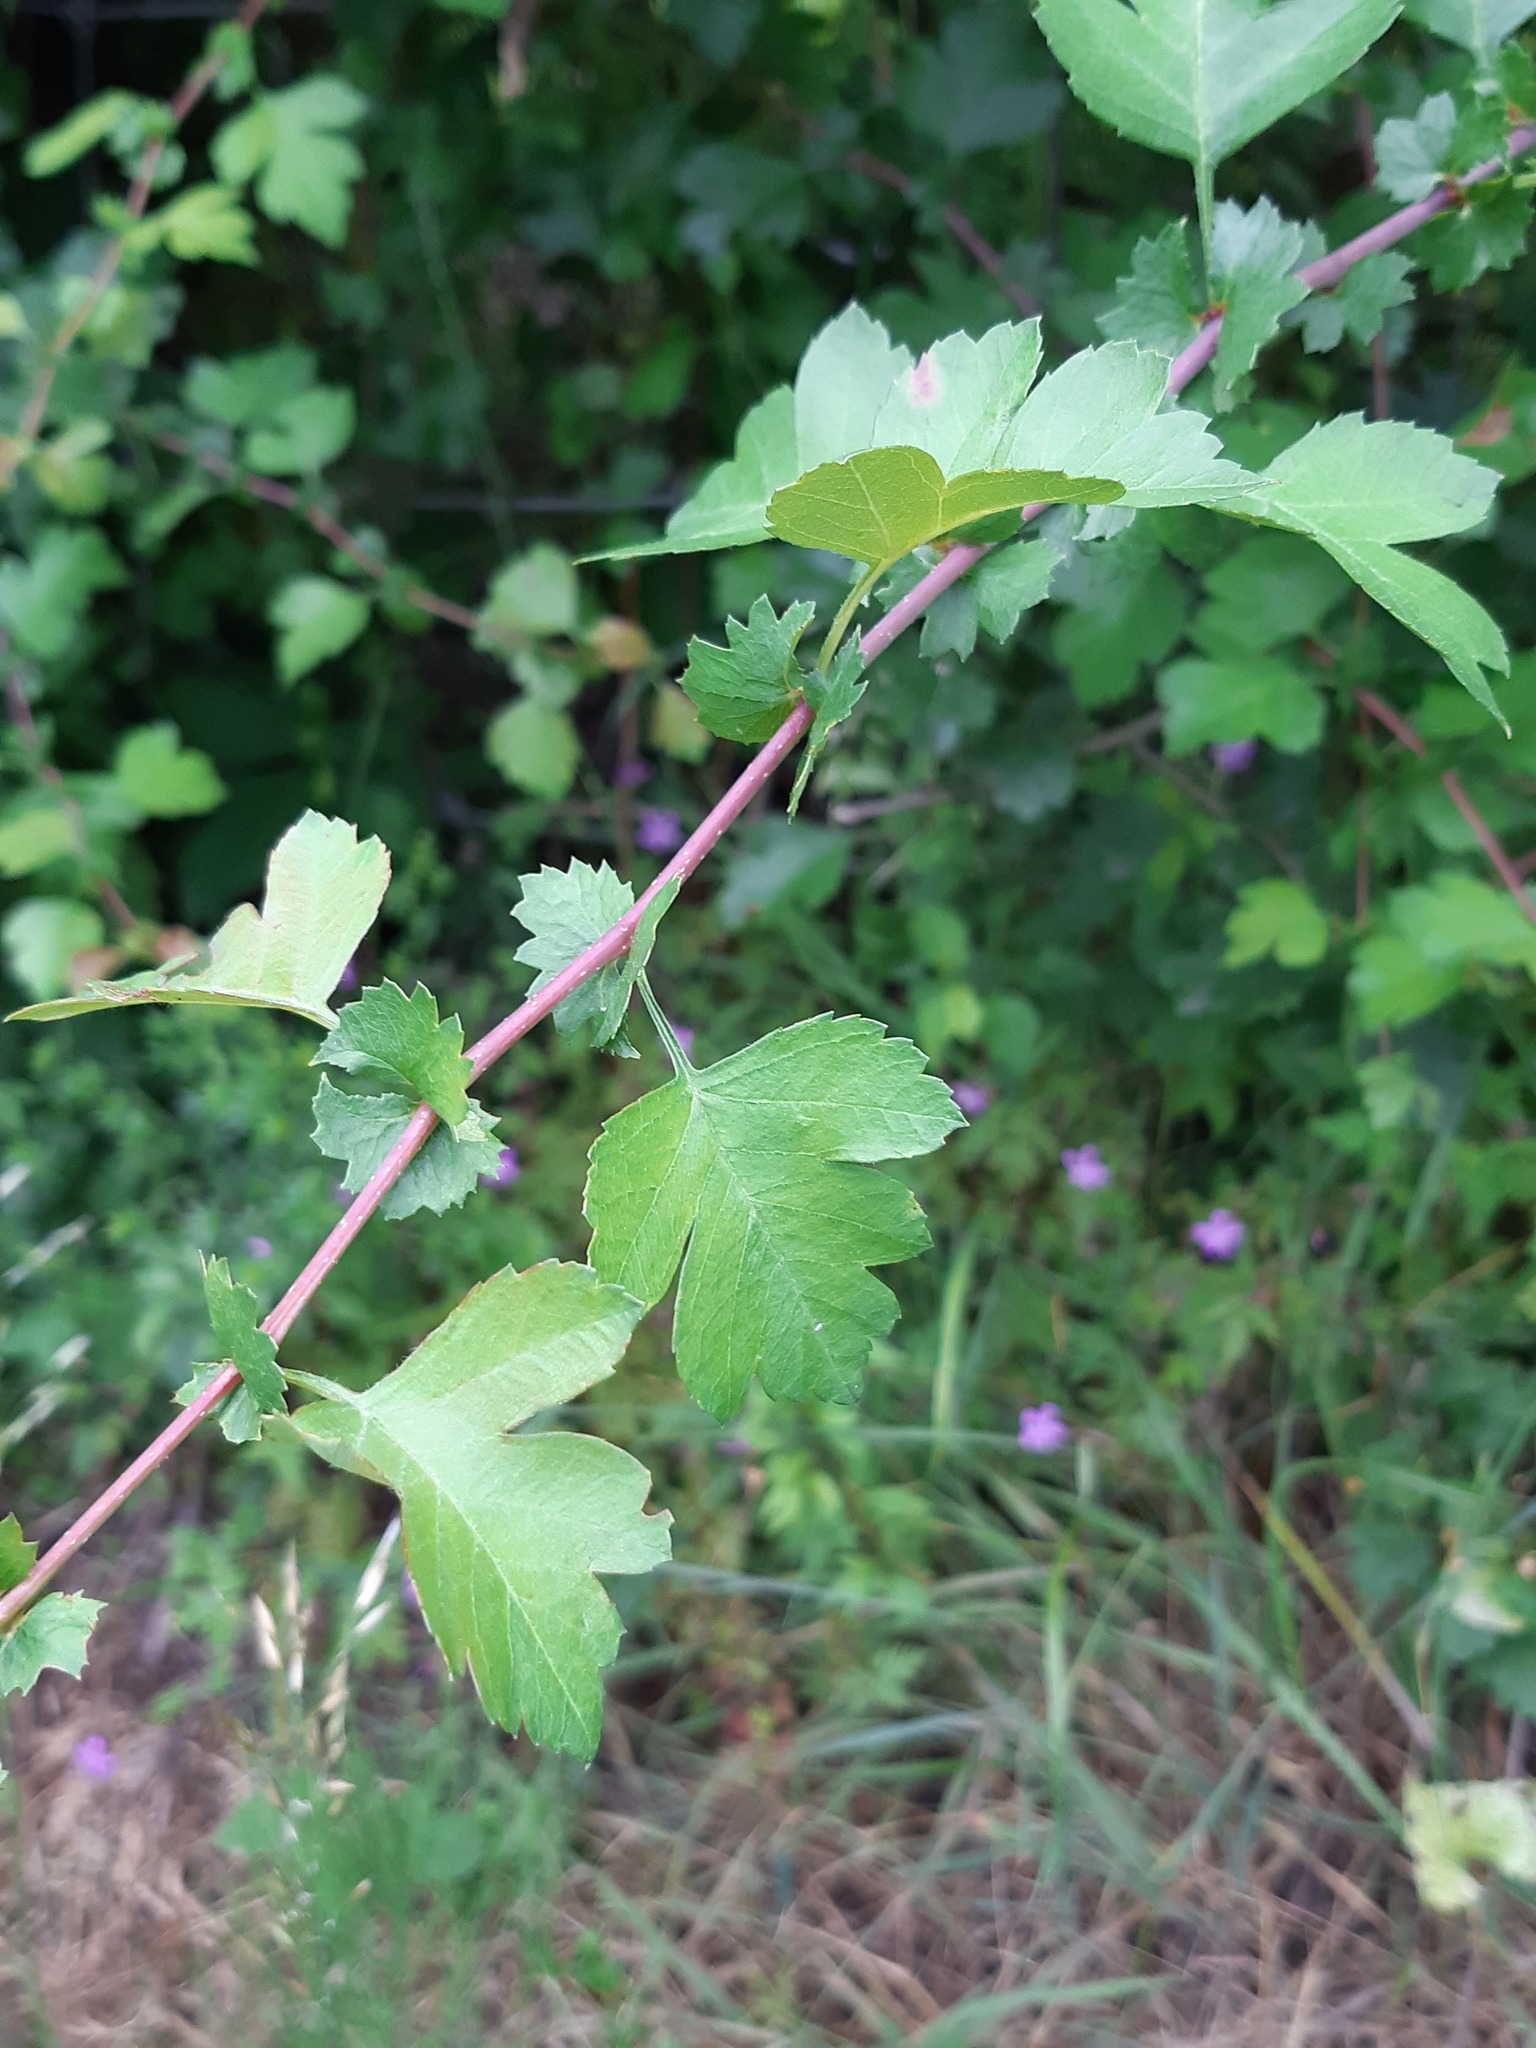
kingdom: Plantae
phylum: Tracheophyta
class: Magnoliopsida
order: Rosales
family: Rosaceae
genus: Crataegus
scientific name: Crataegus monogyna
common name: Hawthorn
